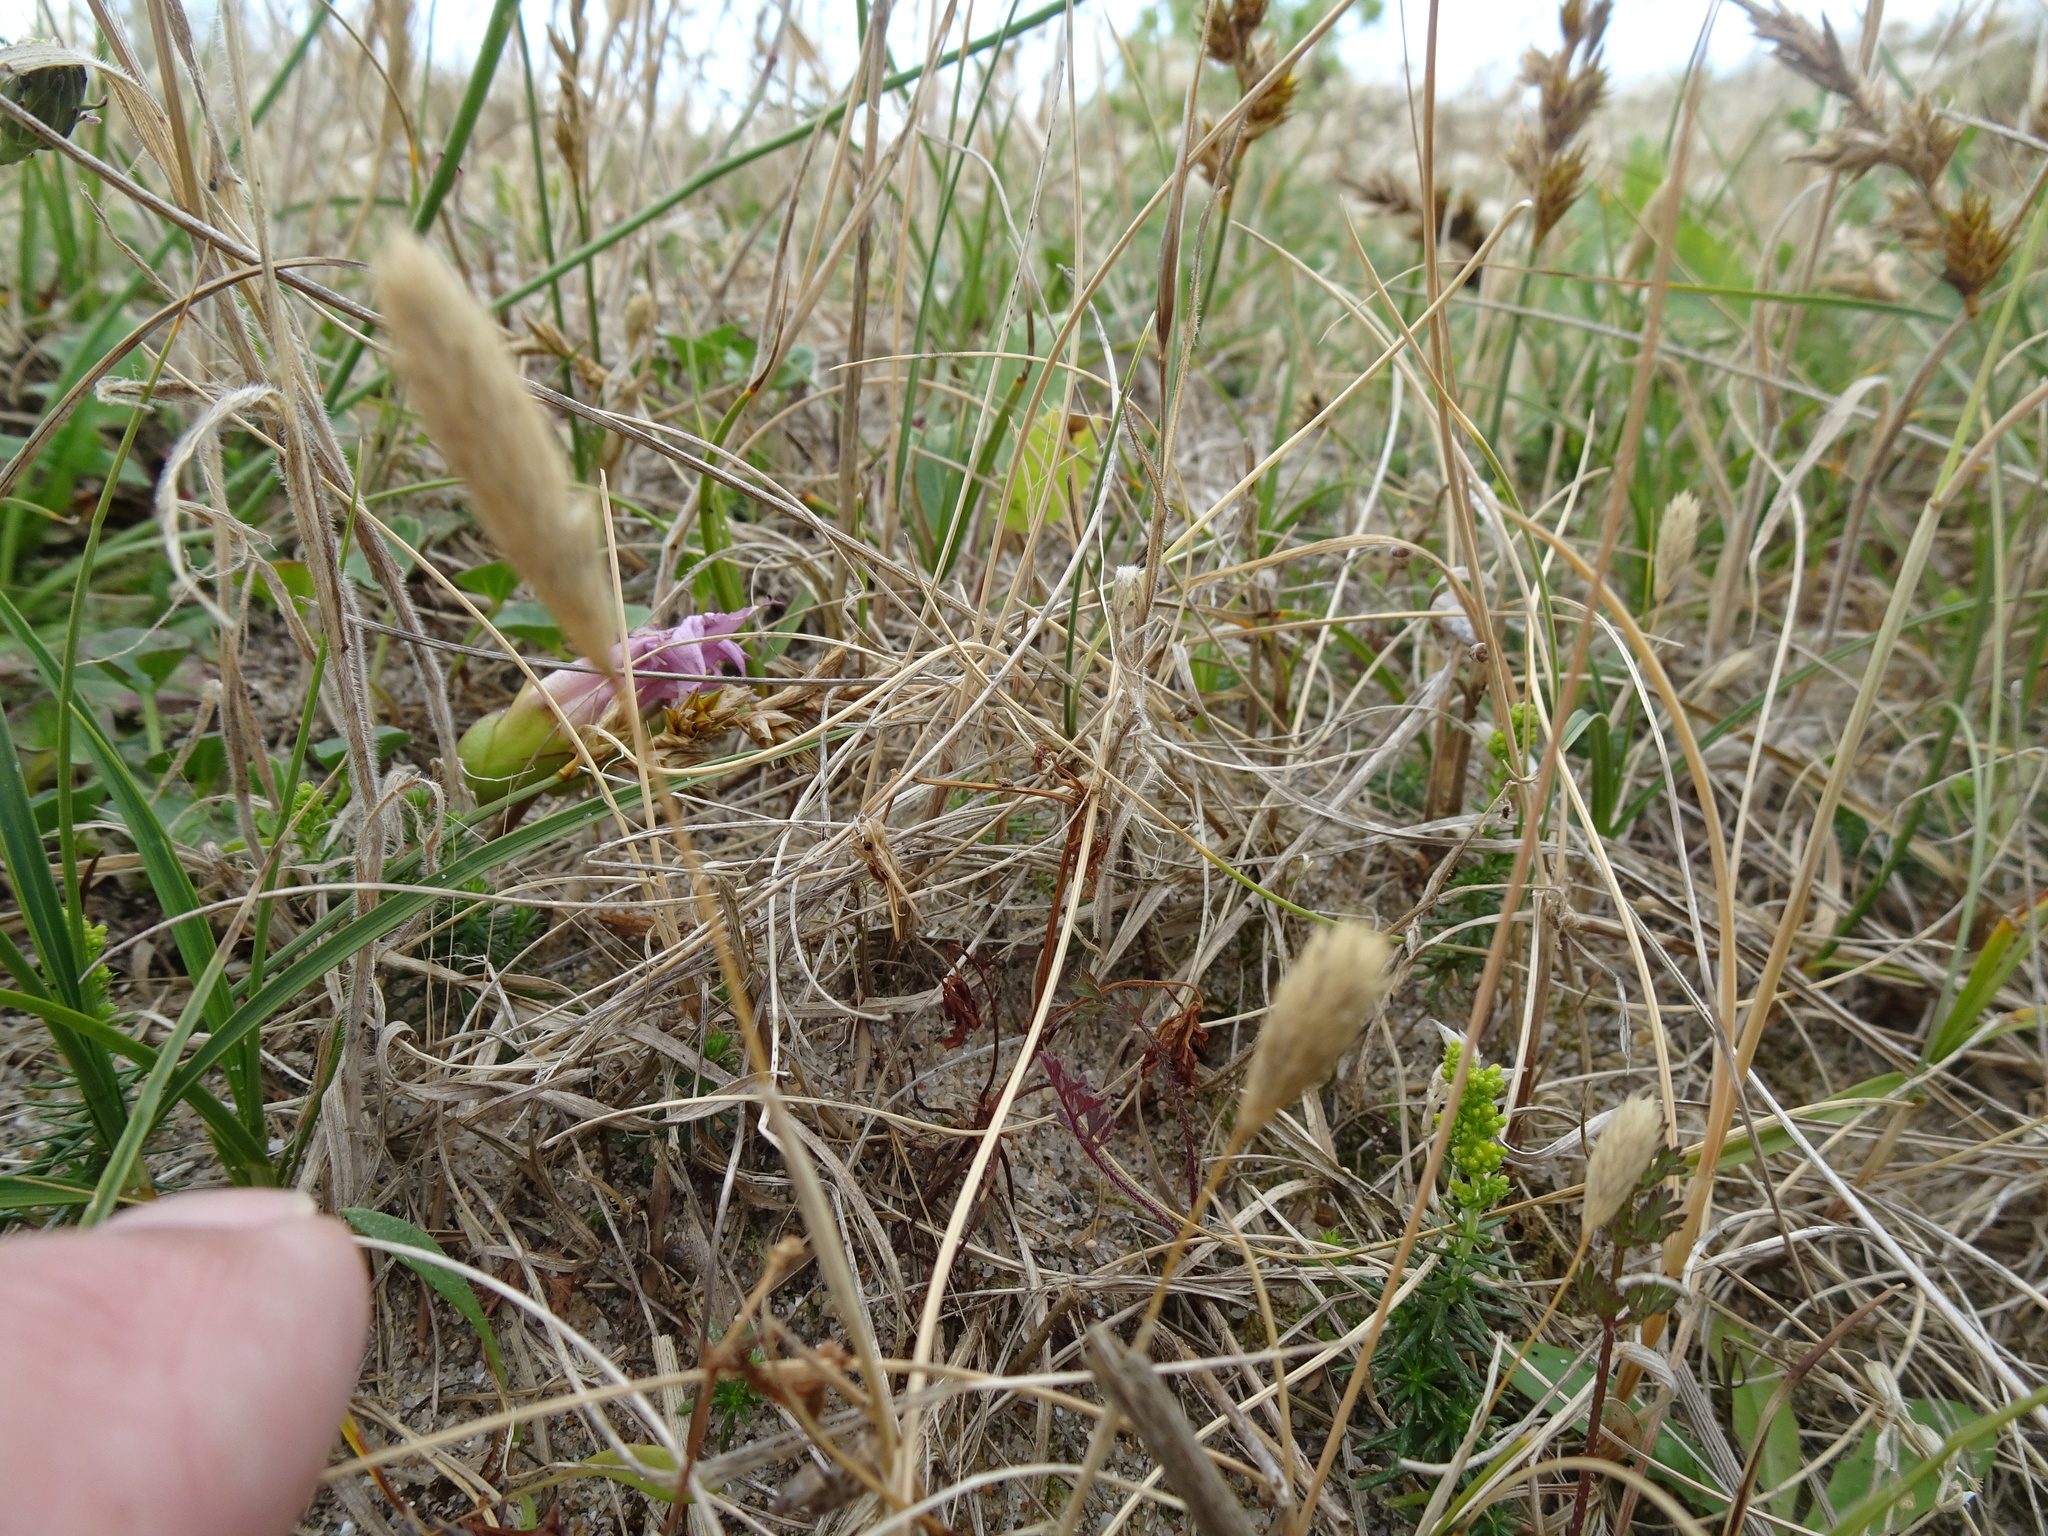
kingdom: Plantae
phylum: Tracheophyta
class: Liliopsida
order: Poales
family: Poaceae
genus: Phleum
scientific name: Phleum arenarium
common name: Sand cat's-tail
